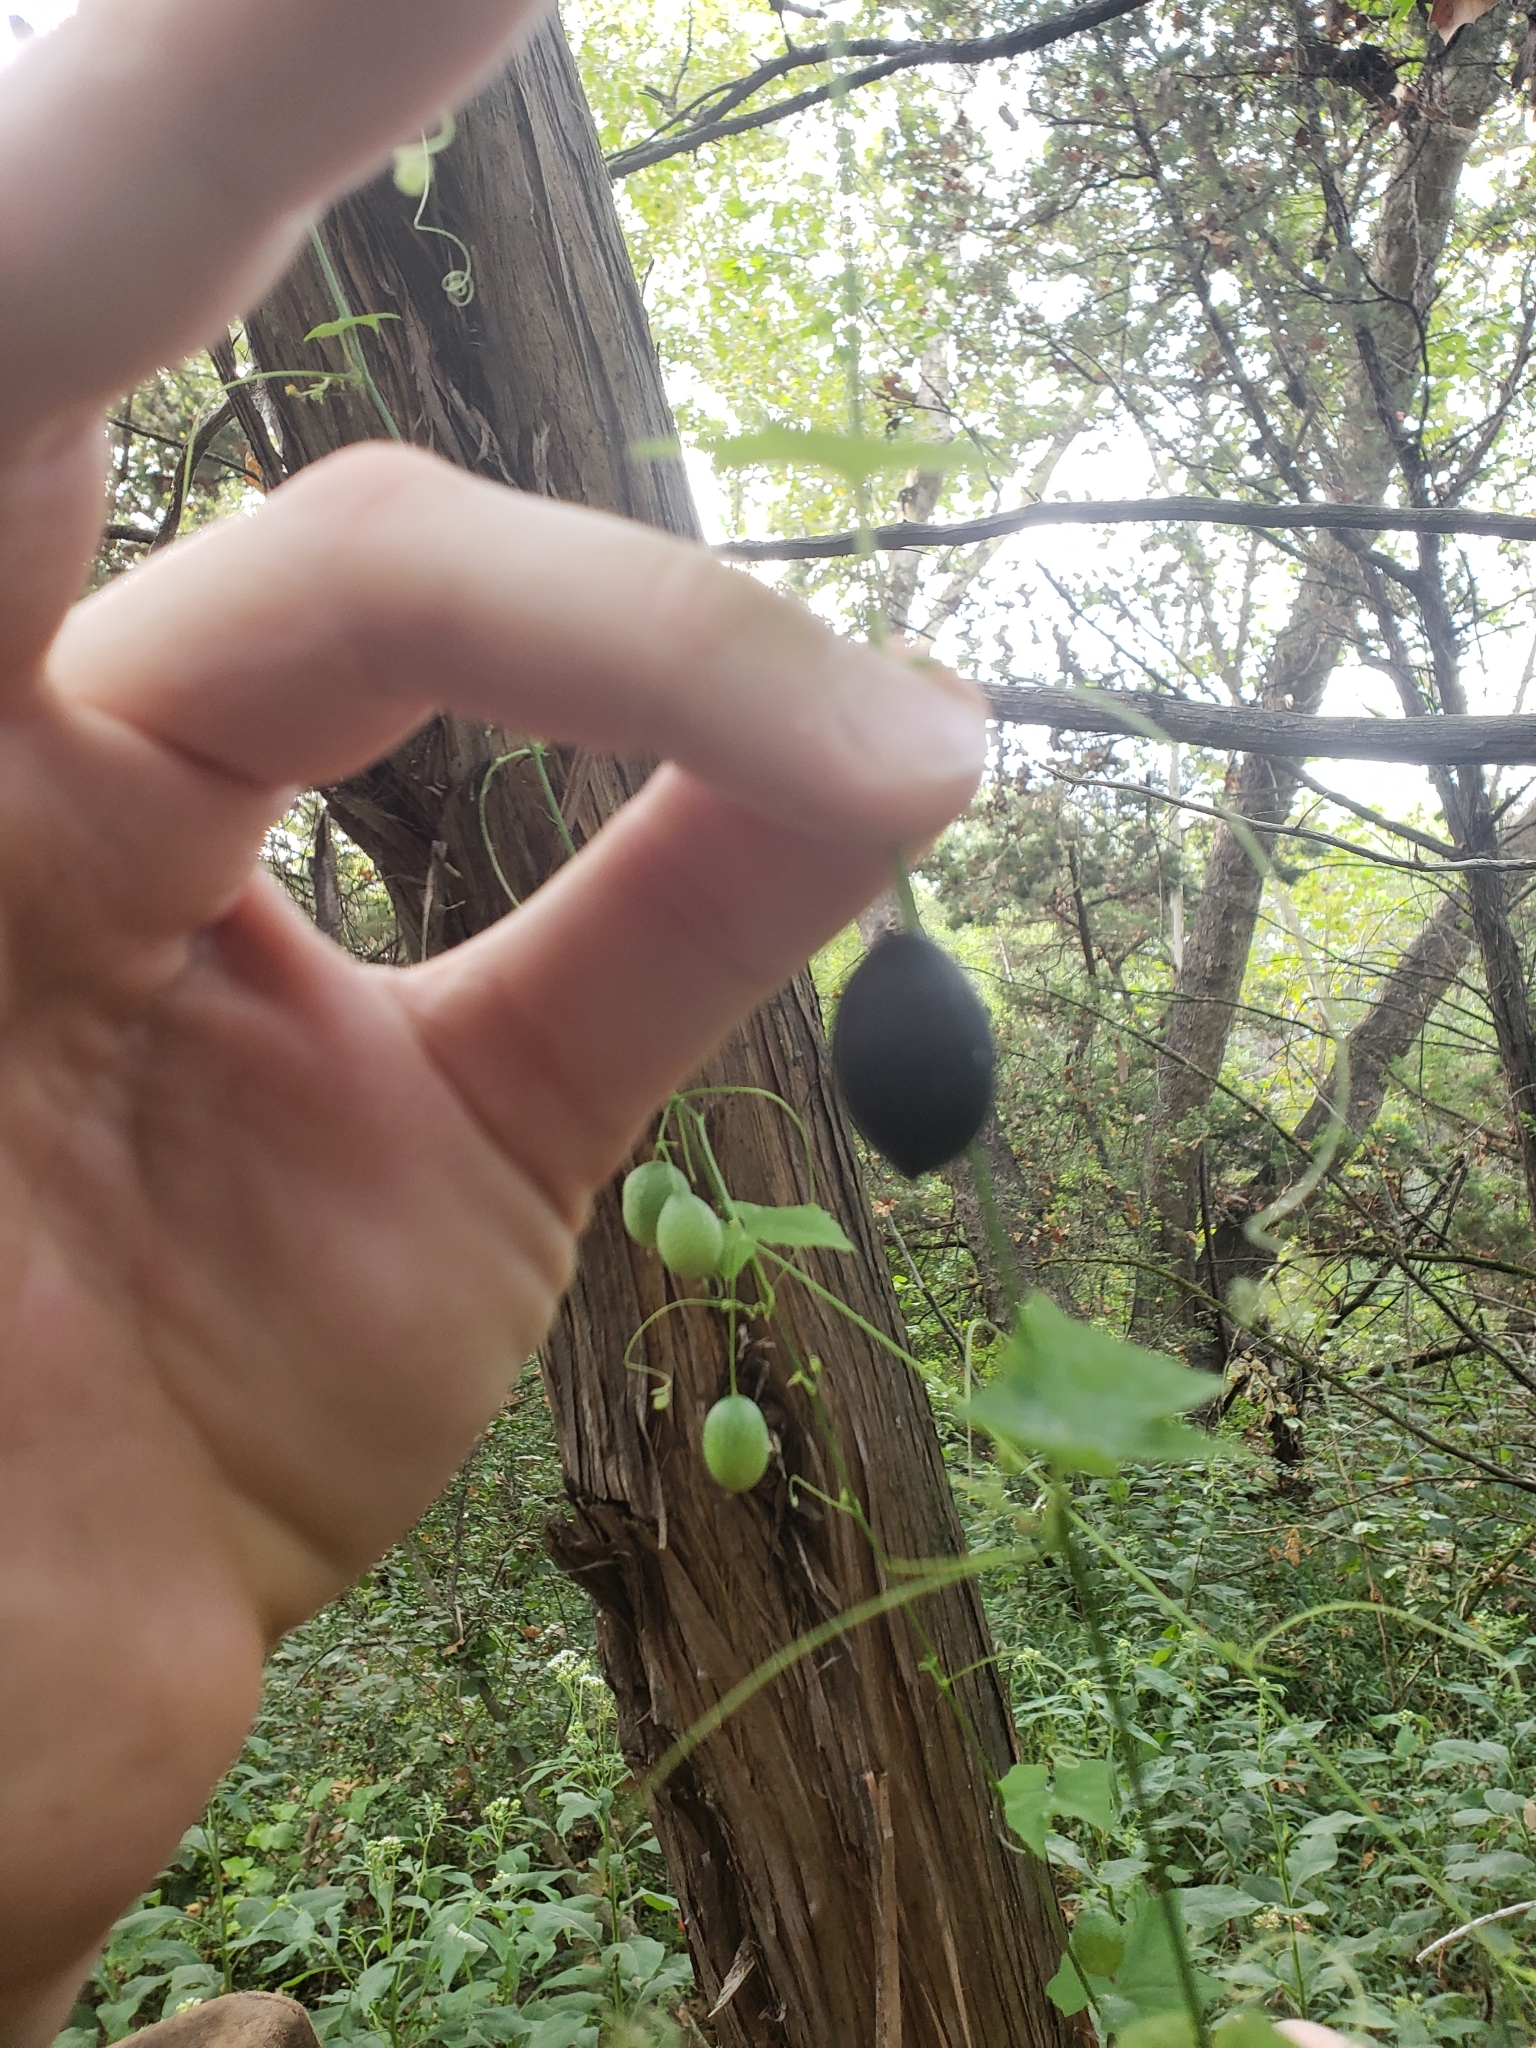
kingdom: Plantae
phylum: Tracheophyta
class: Magnoliopsida
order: Cucurbitales
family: Cucurbitaceae
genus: Melothria
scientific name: Melothria pendula
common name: Creeping-cucumber
